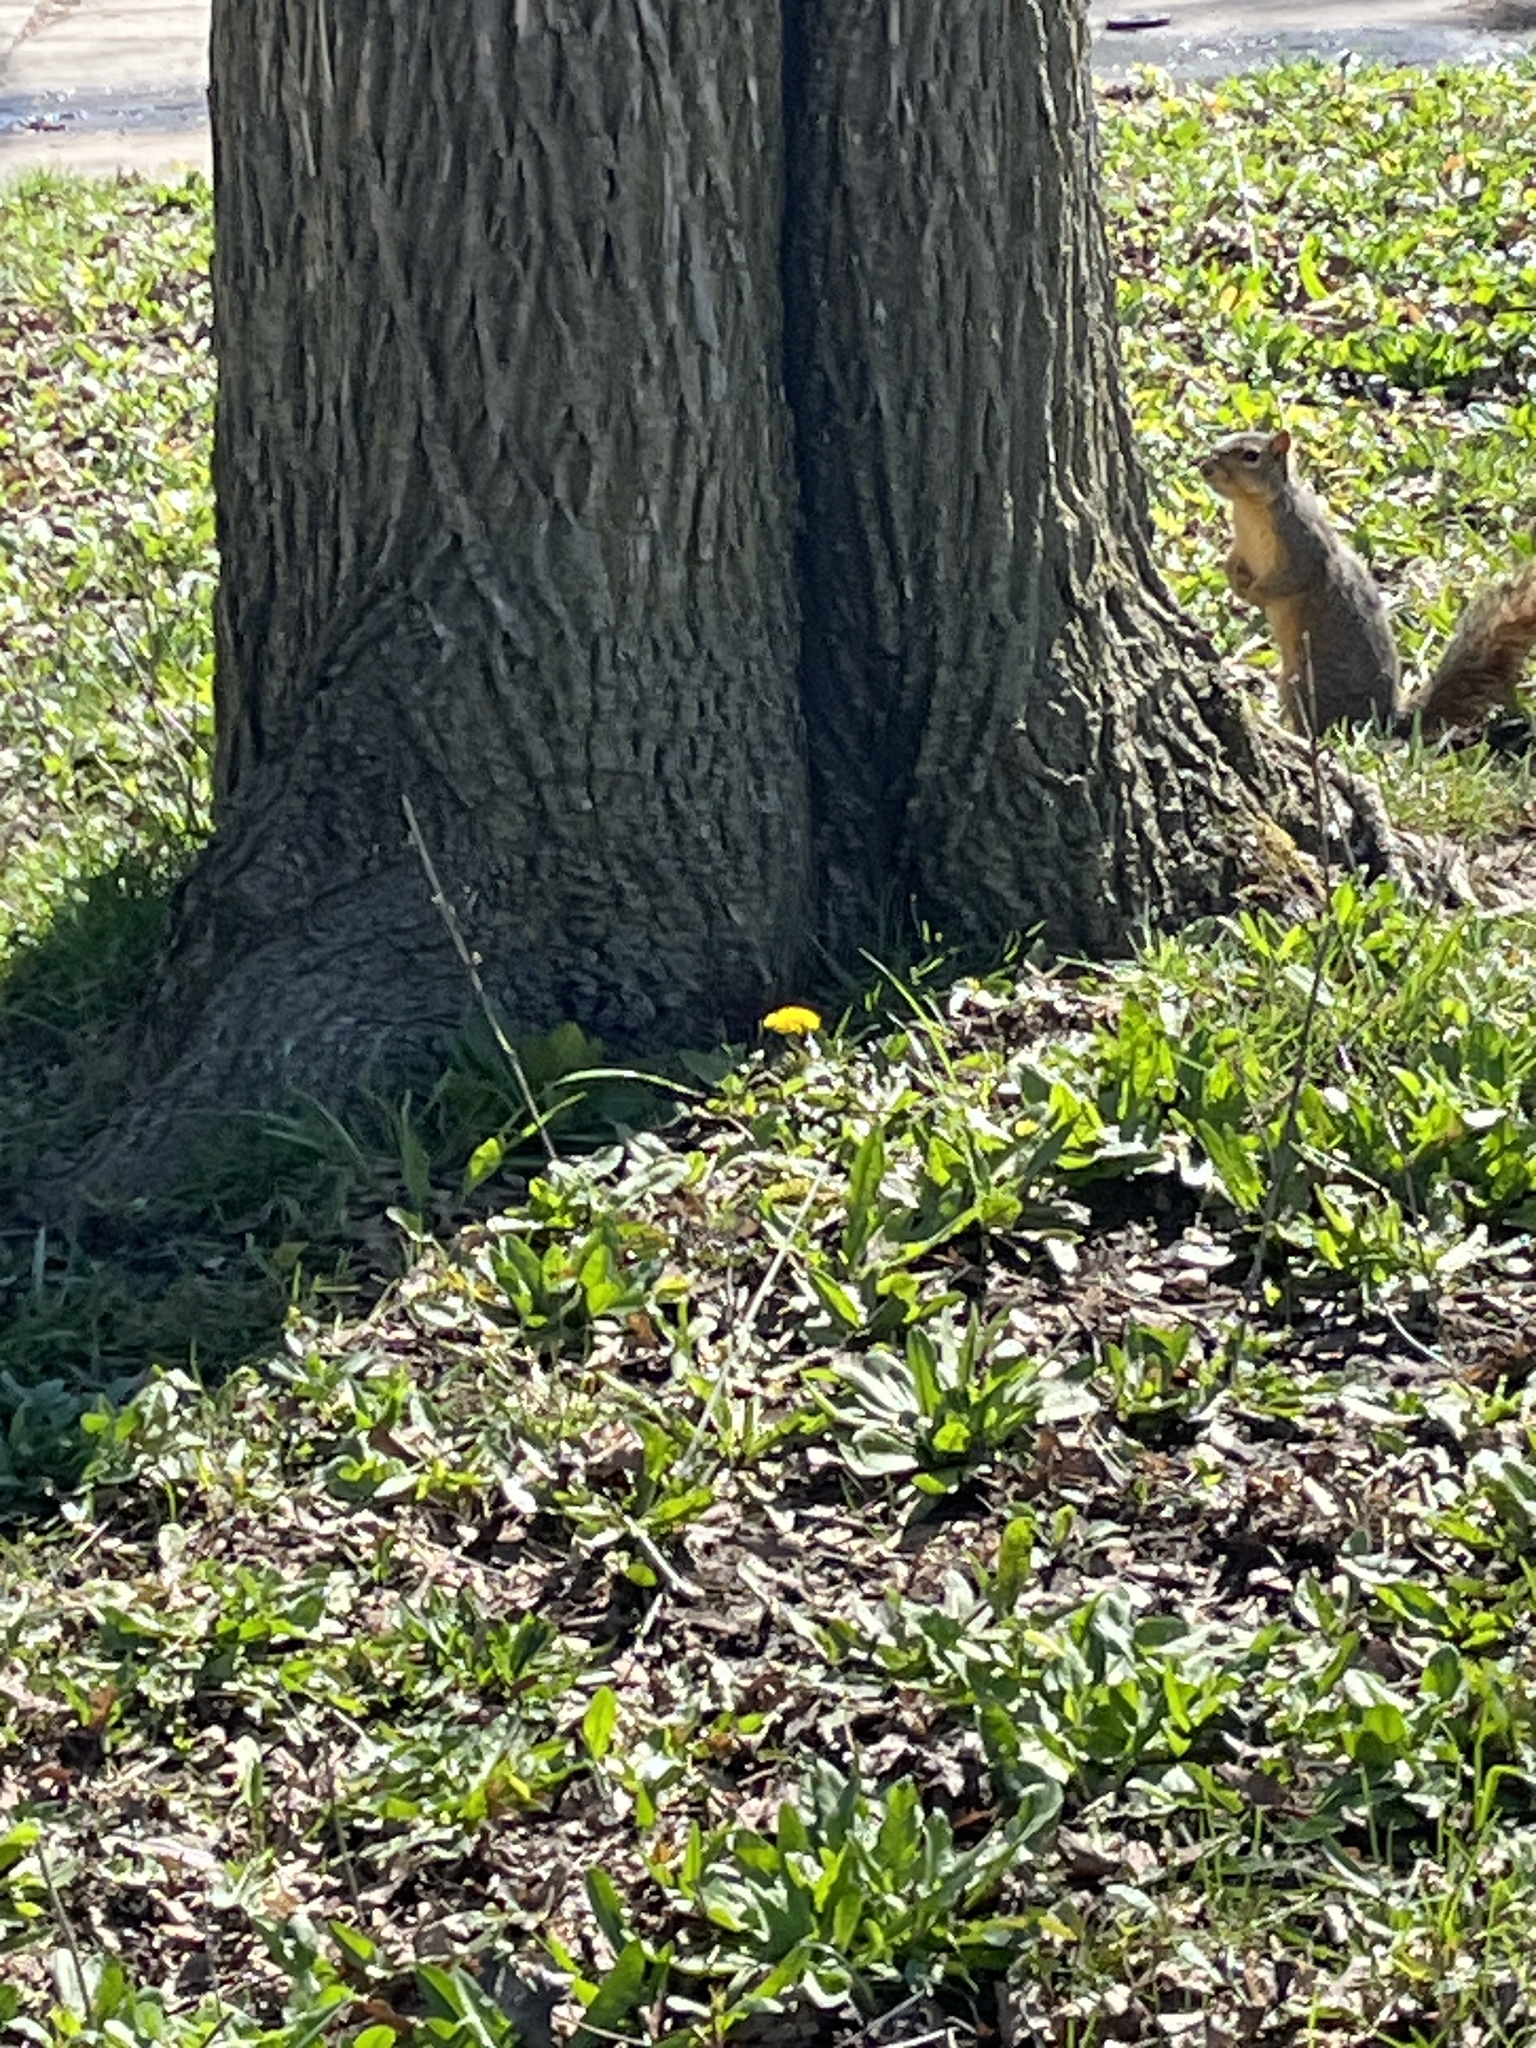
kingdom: Animalia
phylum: Chordata
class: Mammalia
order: Rodentia
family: Sciuridae
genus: Sciurus
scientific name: Sciurus niger
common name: Fox squirrel
